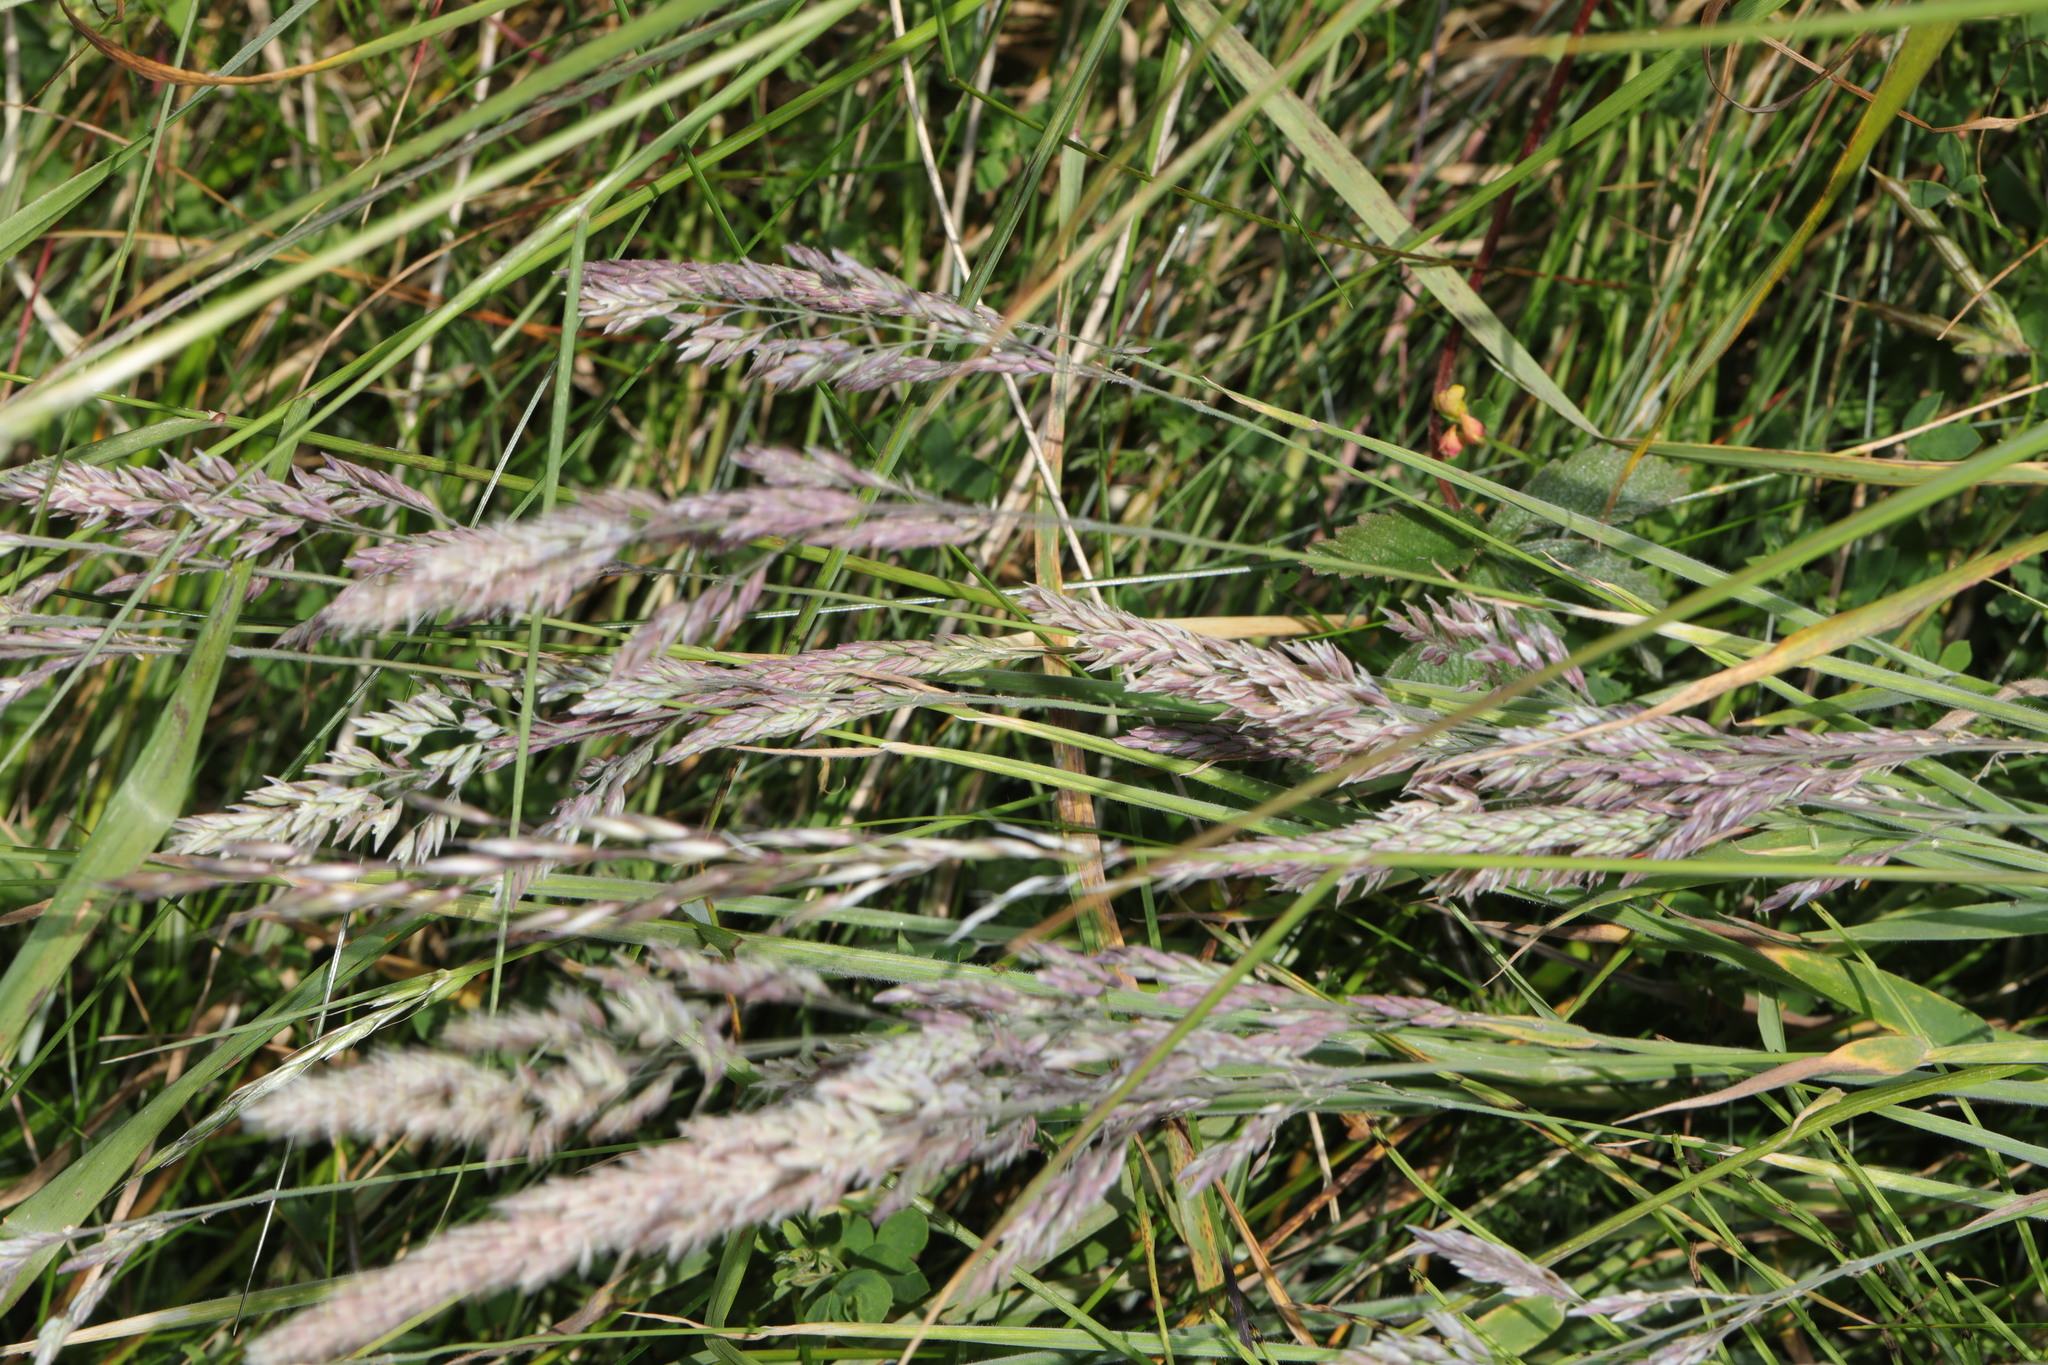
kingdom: Plantae
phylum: Tracheophyta
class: Liliopsida
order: Poales
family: Poaceae
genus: Holcus
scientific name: Holcus lanatus
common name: Yorkshire-fog
